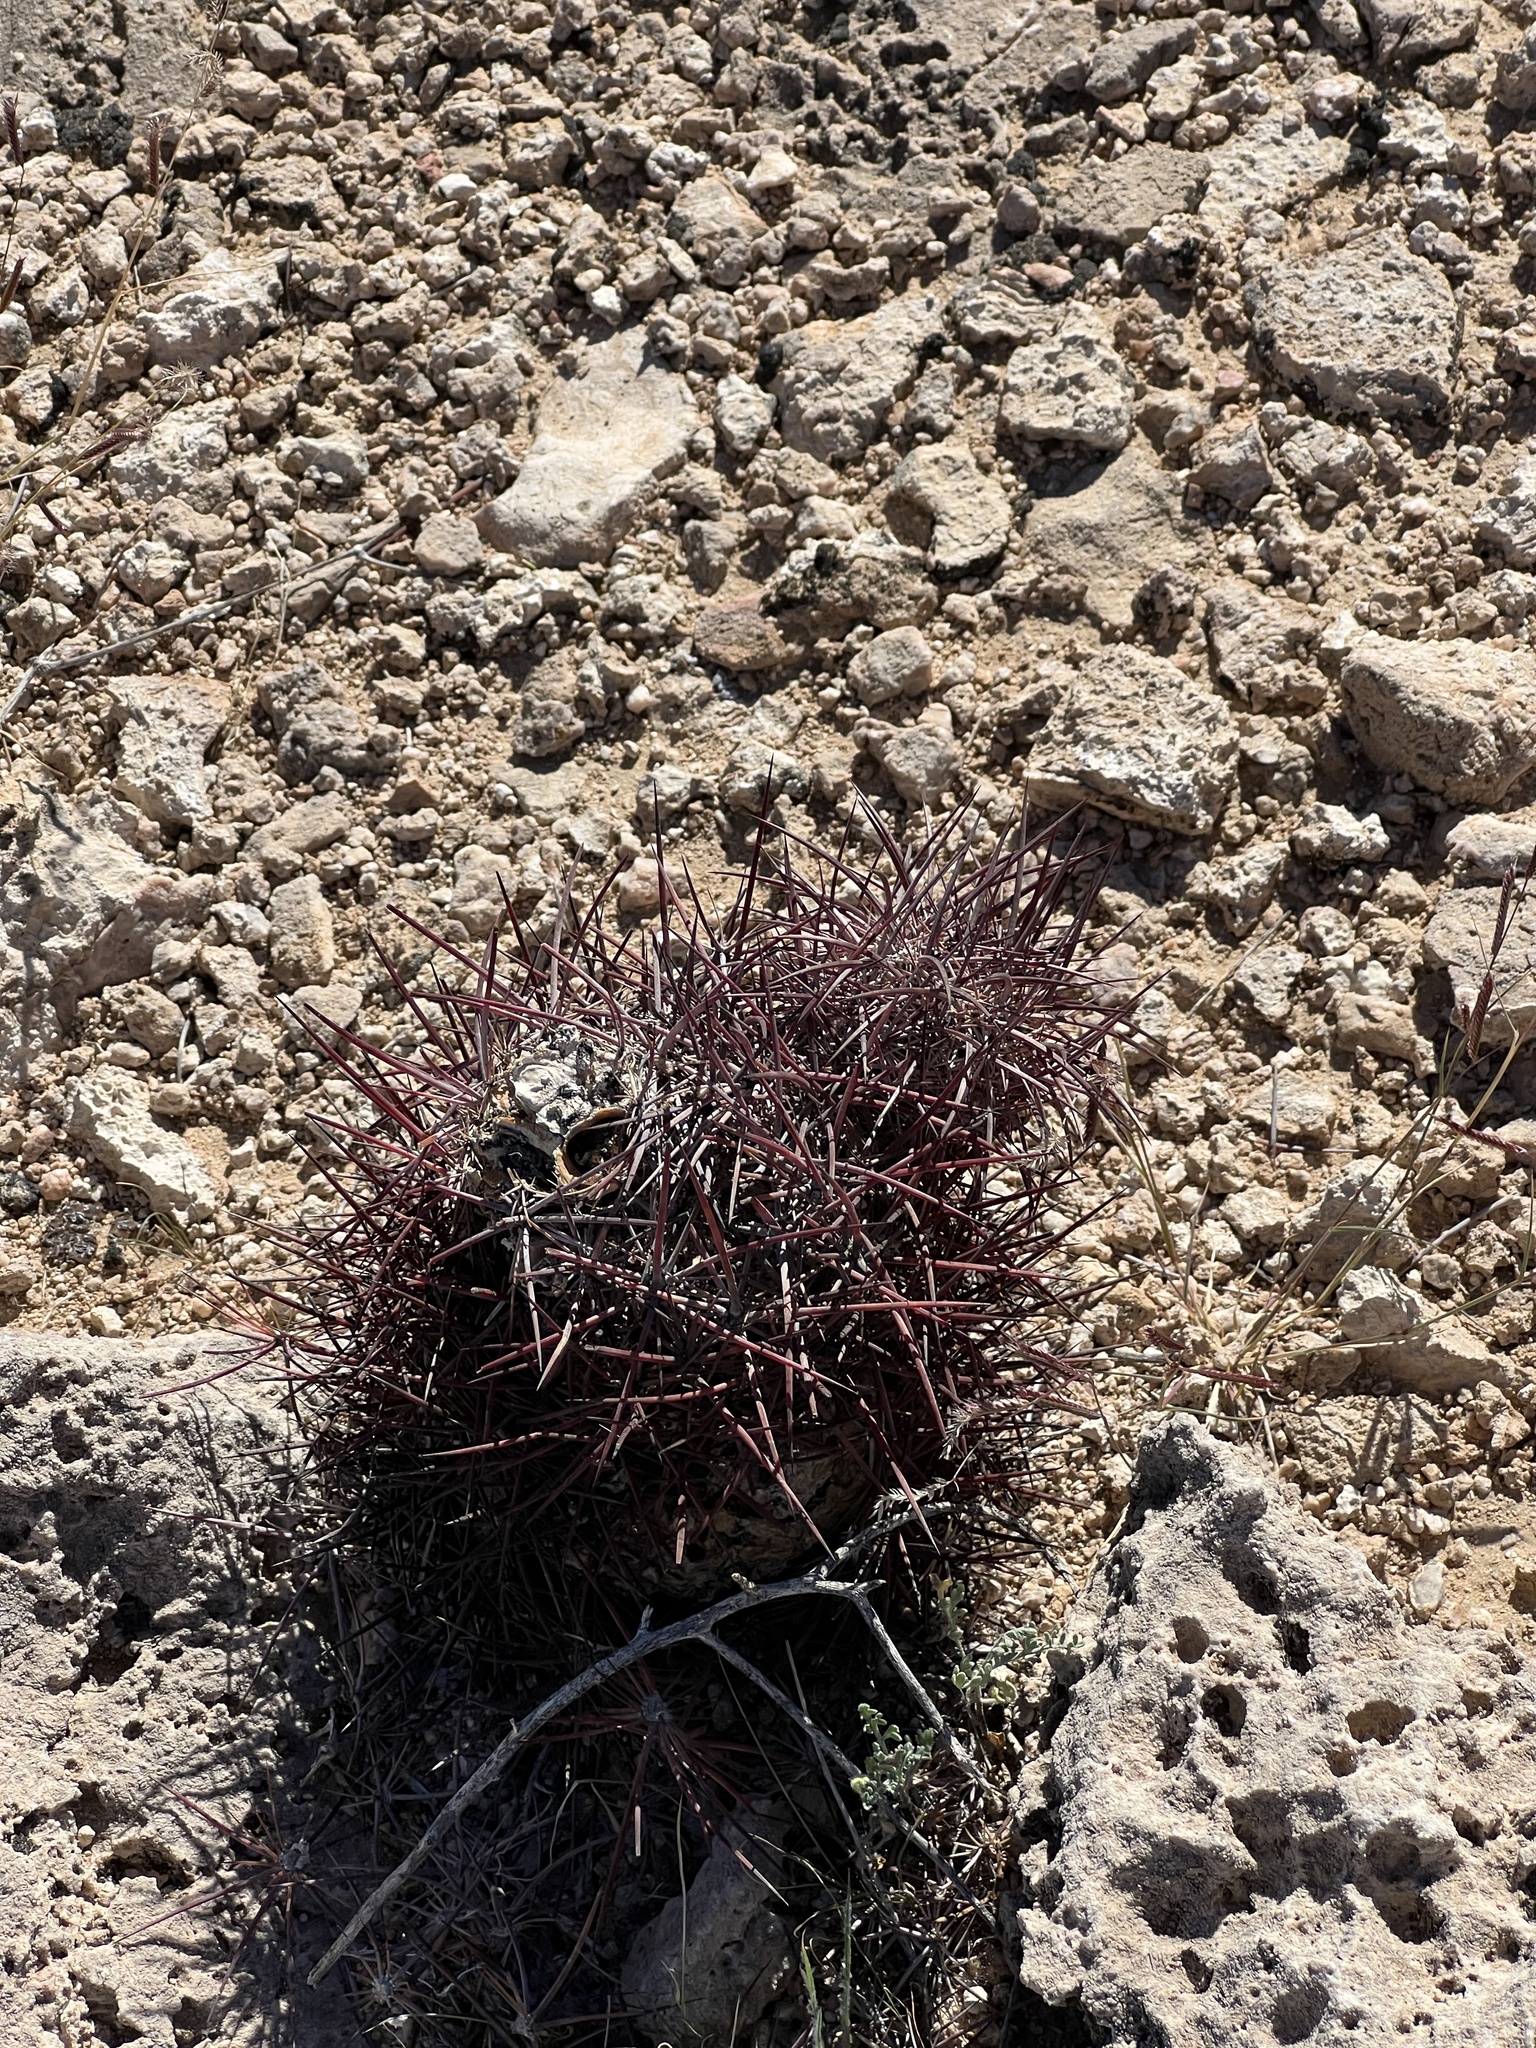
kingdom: Plantae
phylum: Tracheophyta
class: Magnoliopsida
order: Caryophyllales
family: Cactaceae
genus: Sclerocactus
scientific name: Sclerocactus johnsonii
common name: Eight-spine fishhook cactus
